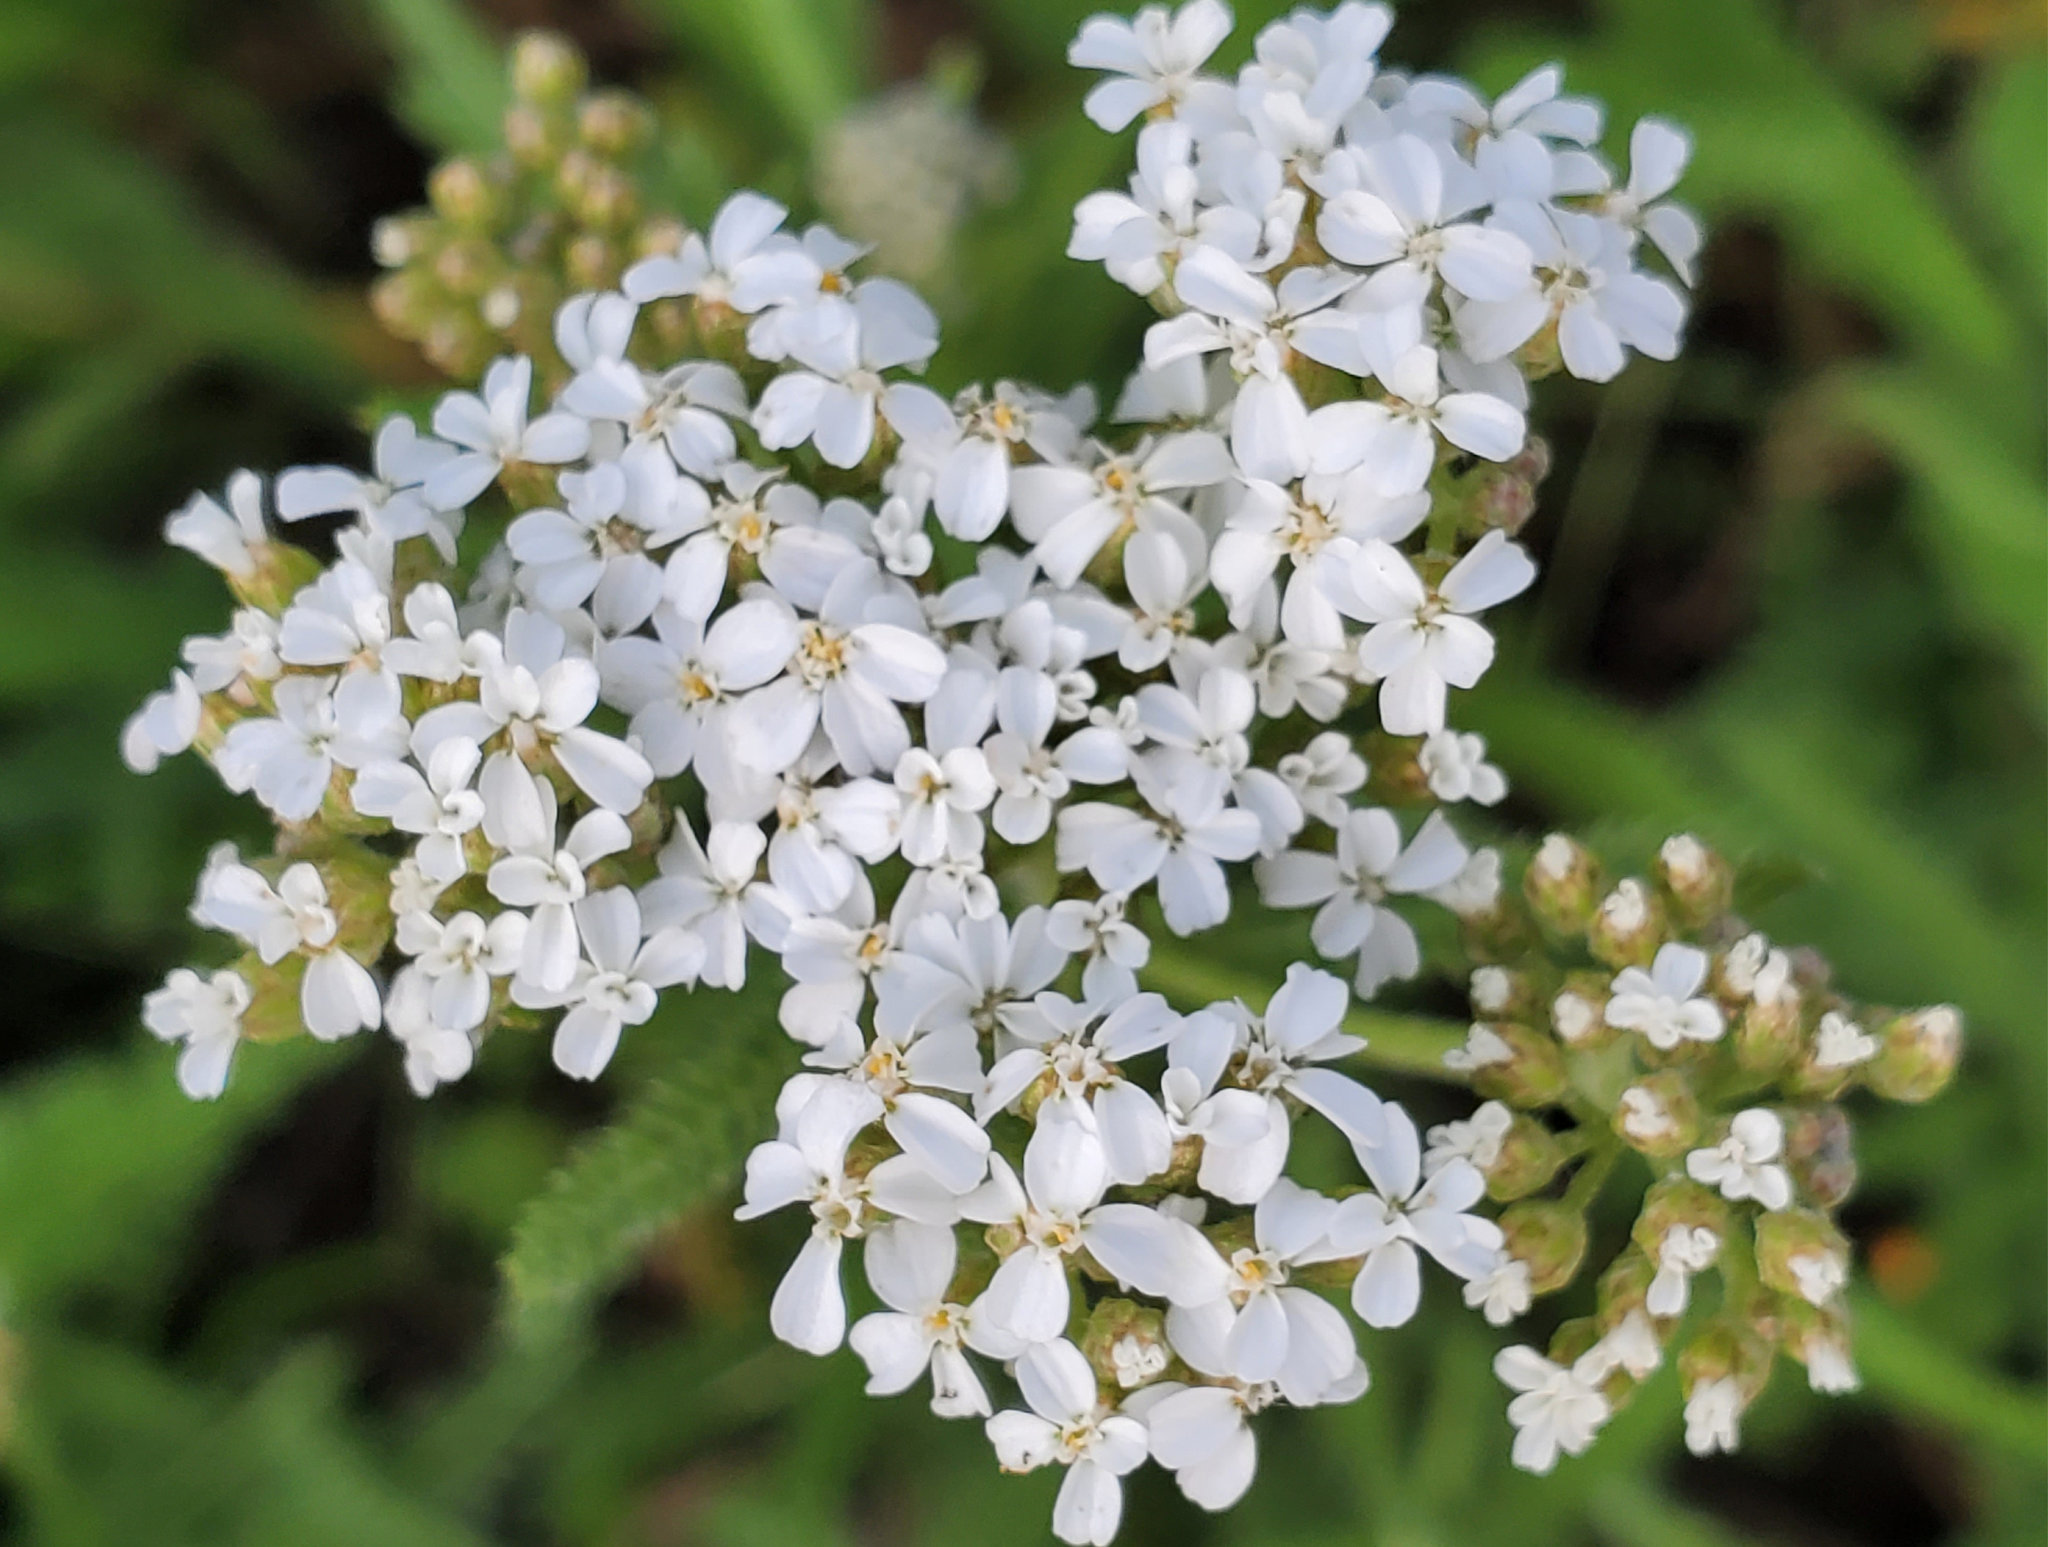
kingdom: Plantae
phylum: Tracheophyta
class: Magnoliopsida
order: Asterales
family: Asteraceae
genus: Achillea
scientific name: Achillea millefolium
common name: Yarrow
